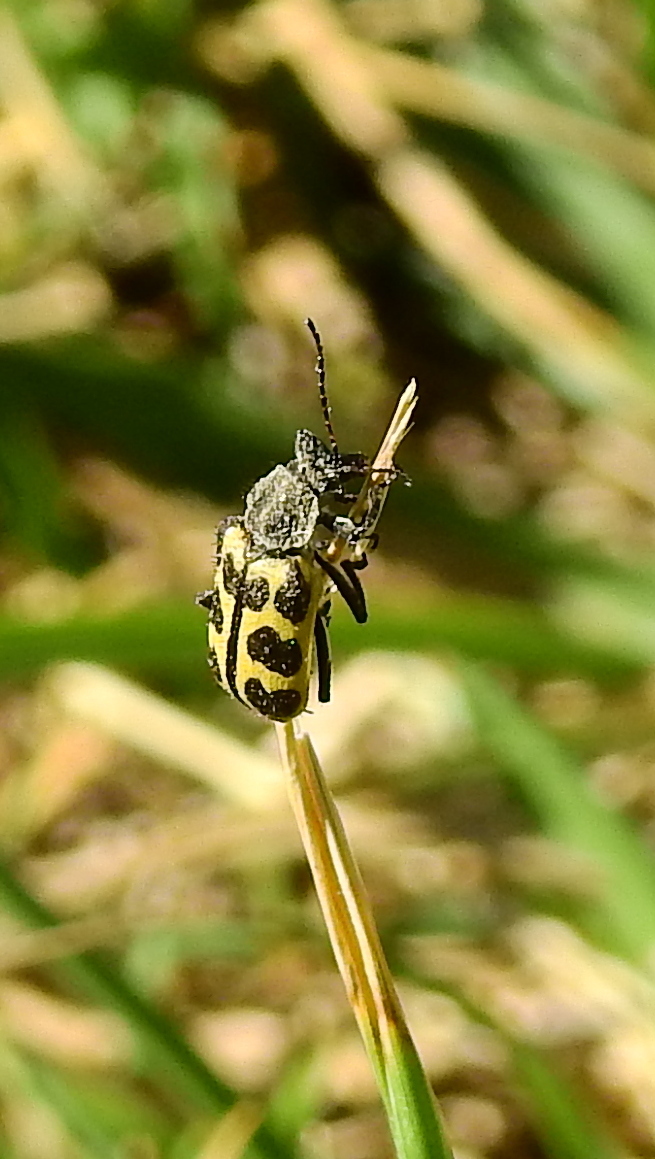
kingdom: Animalia
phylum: Arthropoda
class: Insecta
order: Coleoptera
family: Melyridae
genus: Astylus
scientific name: Astylus atromaculatus
